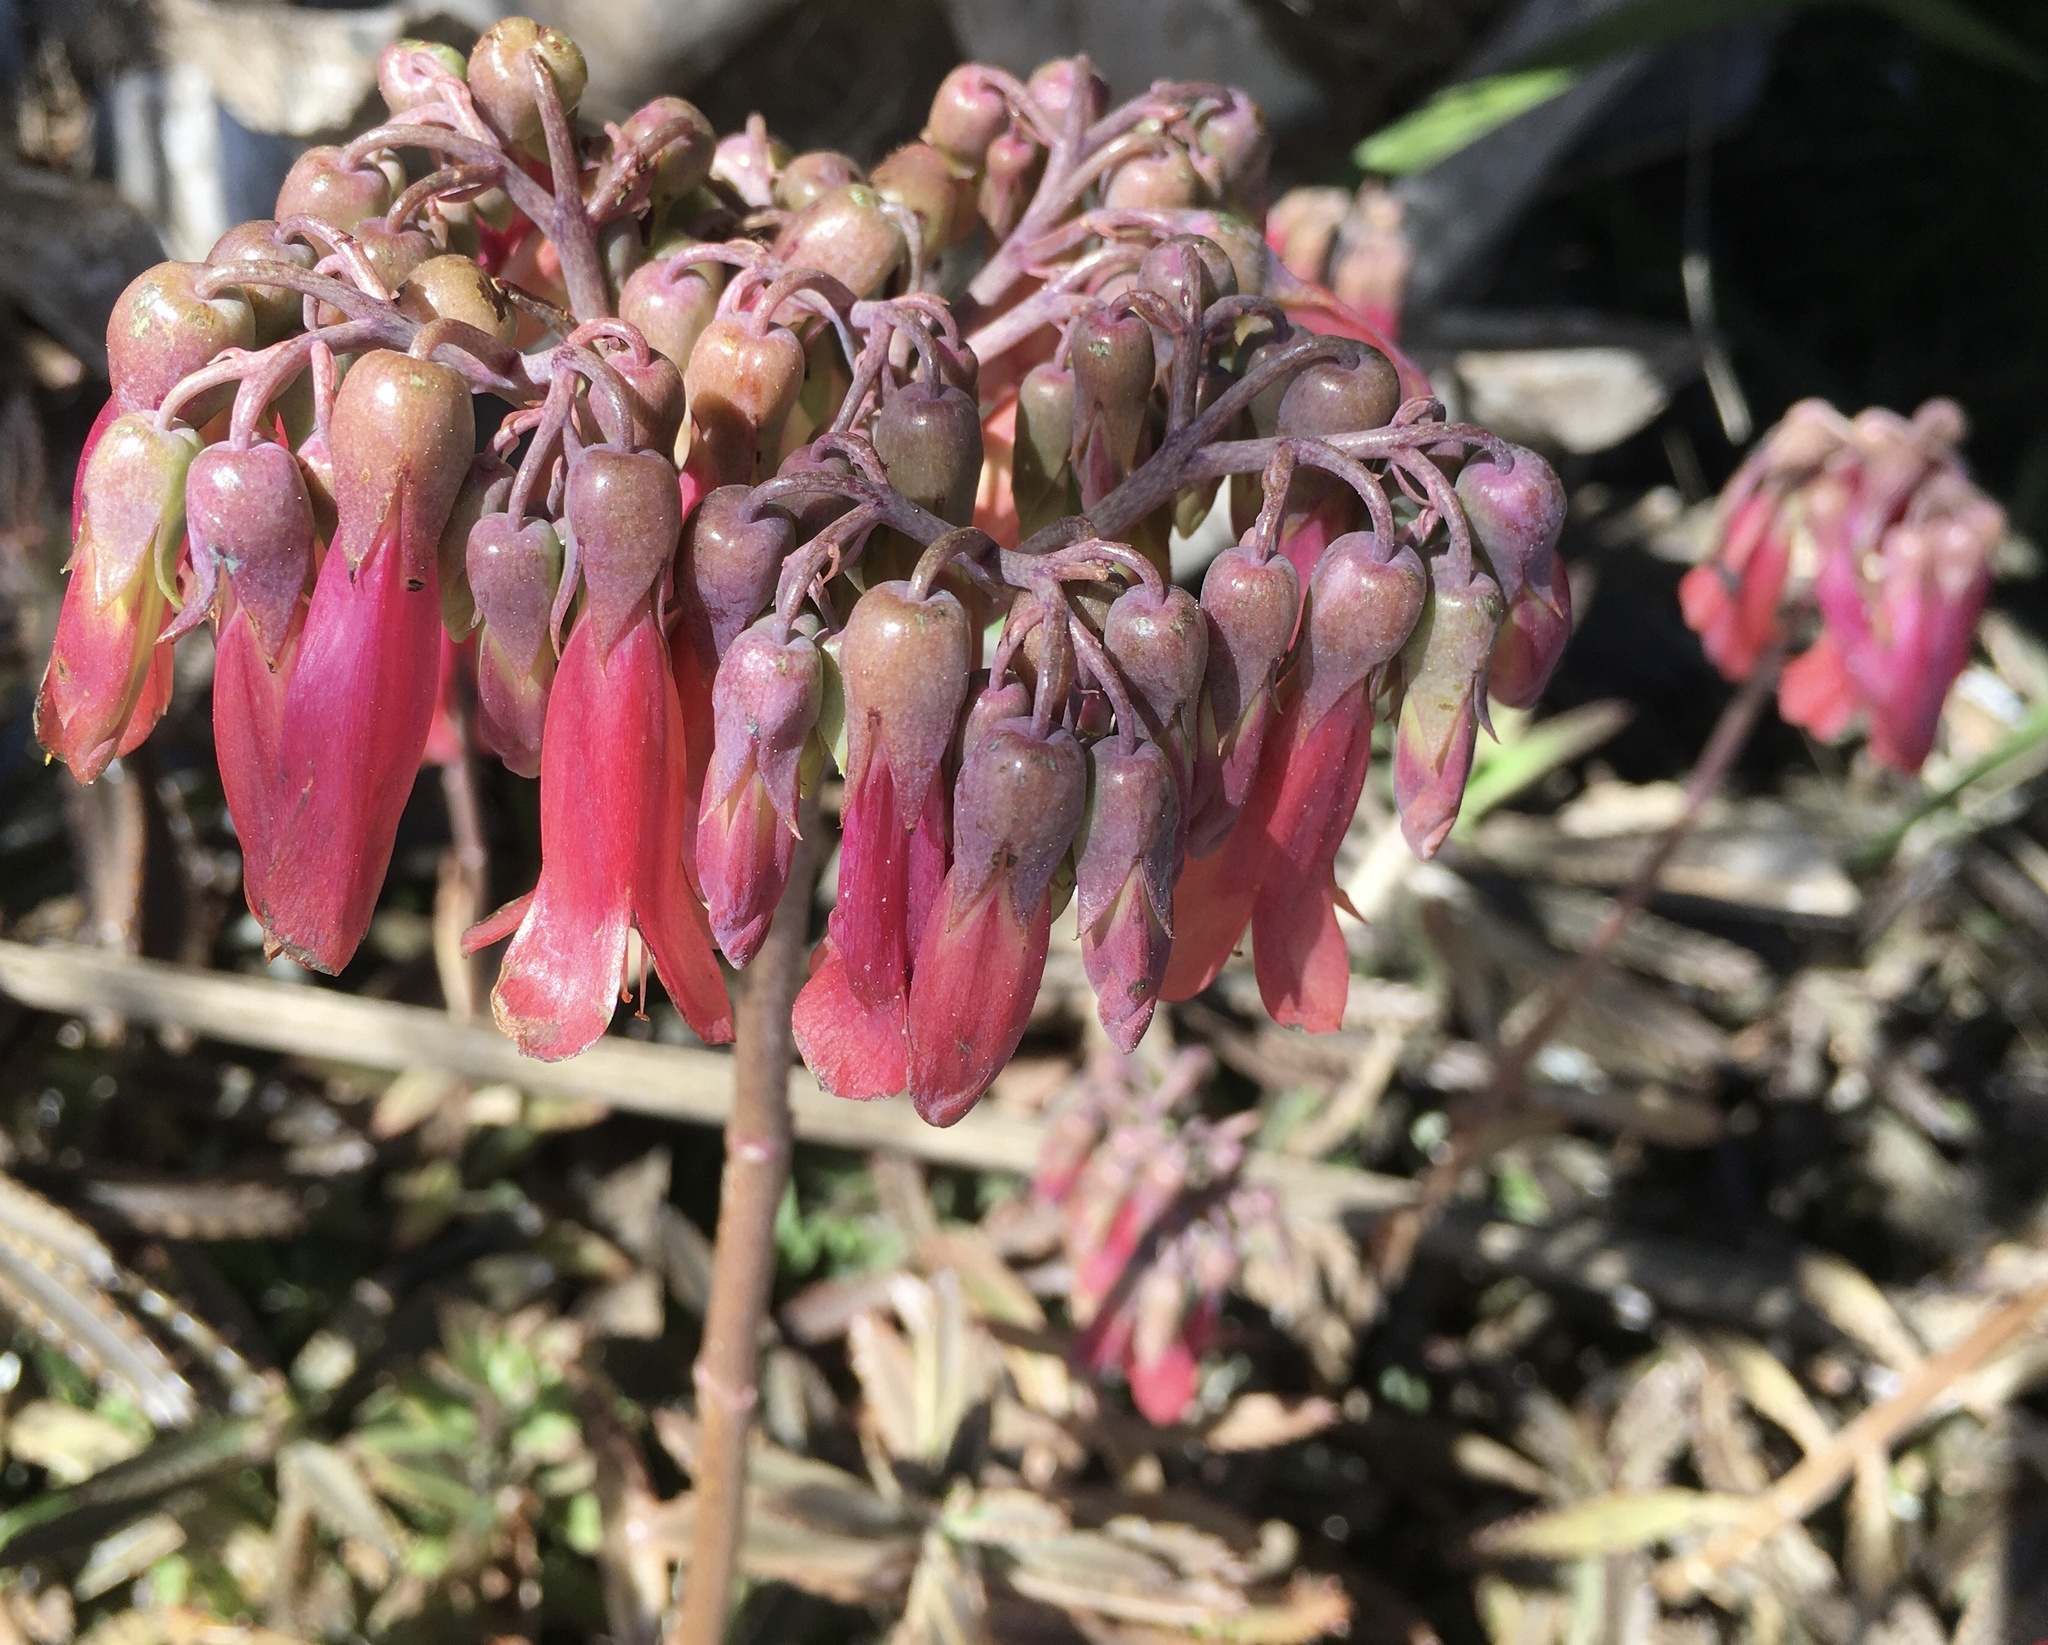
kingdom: Plantae
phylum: Tracheophyta
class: Magnoliopsida
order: Saxifragales
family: Crassulaceae
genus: Kalanchoe
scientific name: Kalanchoe houghtonii
